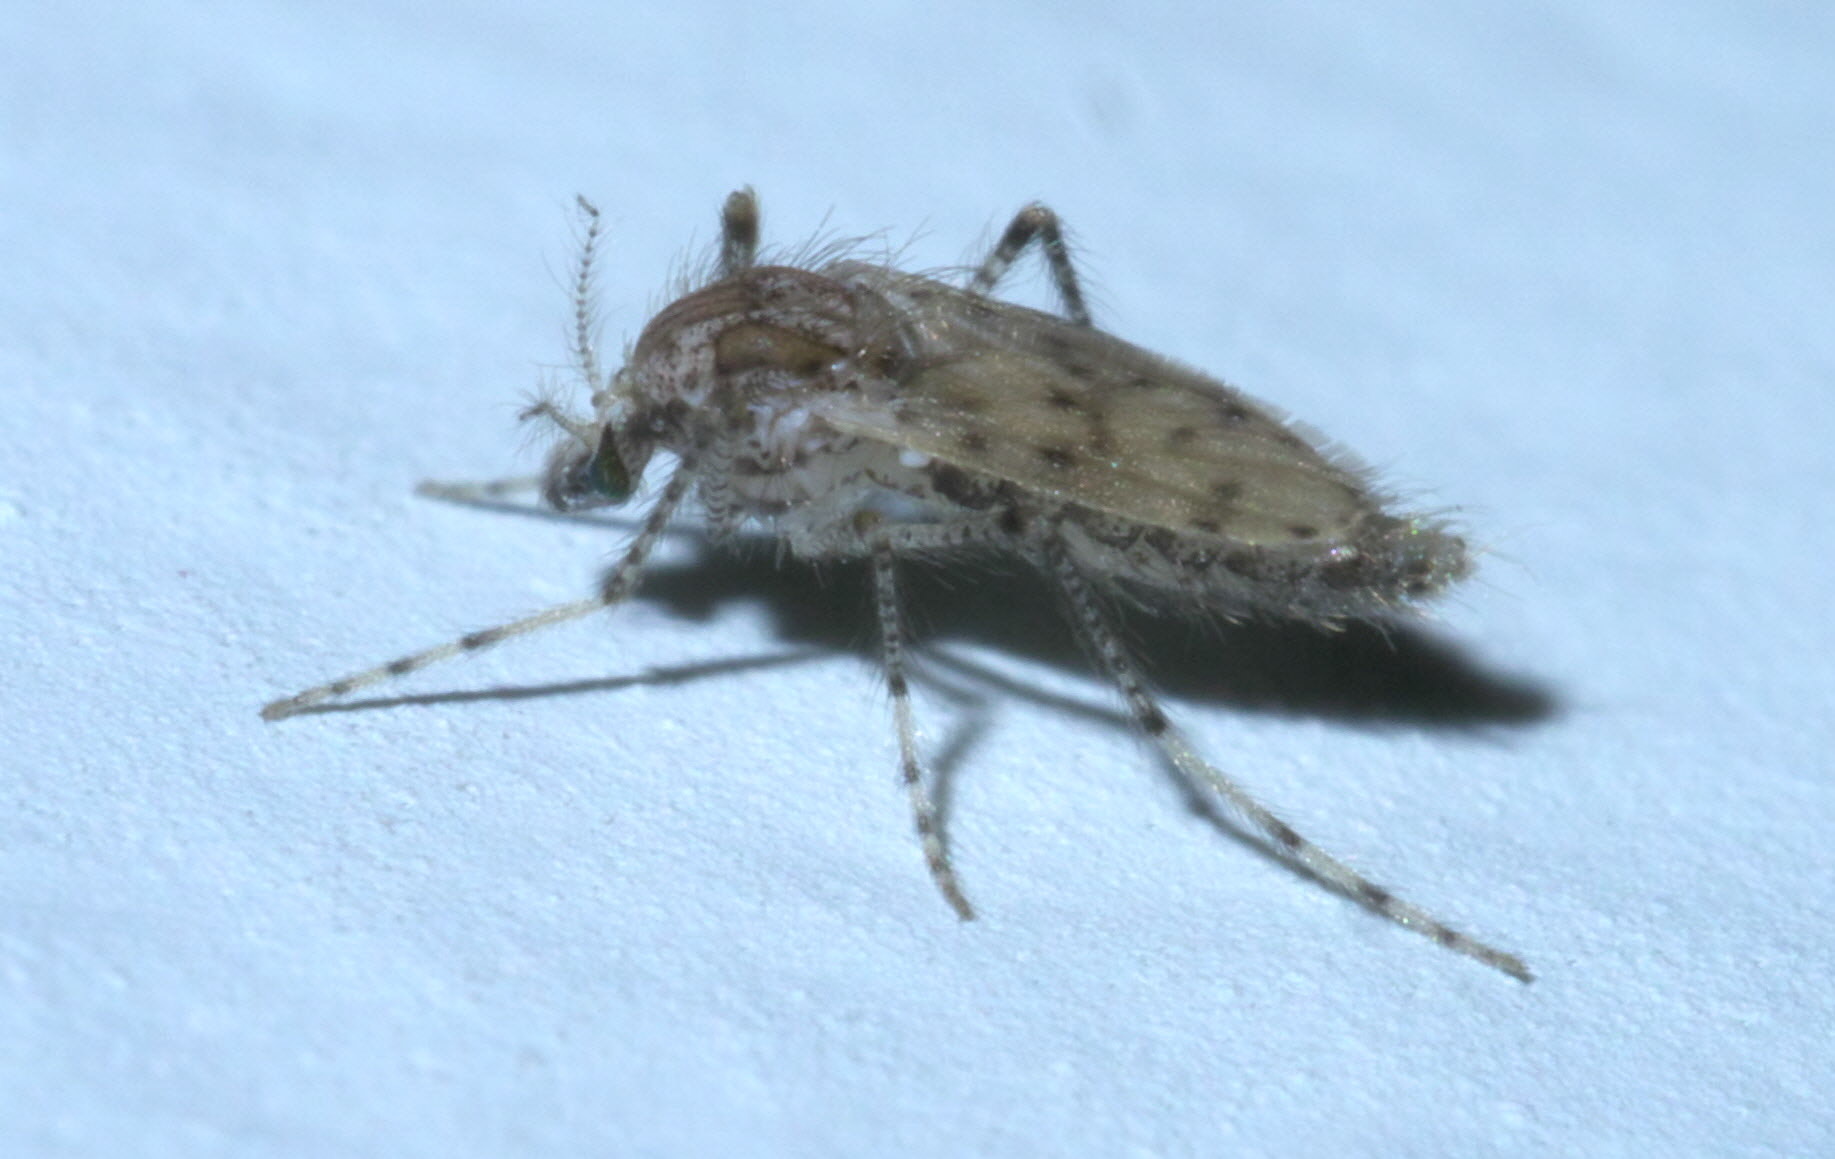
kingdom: Animalia
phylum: Arthropoda
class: Insecta
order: Diptera
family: Chaoboridae
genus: Chaoborus
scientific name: Chaoborus punctipennis
